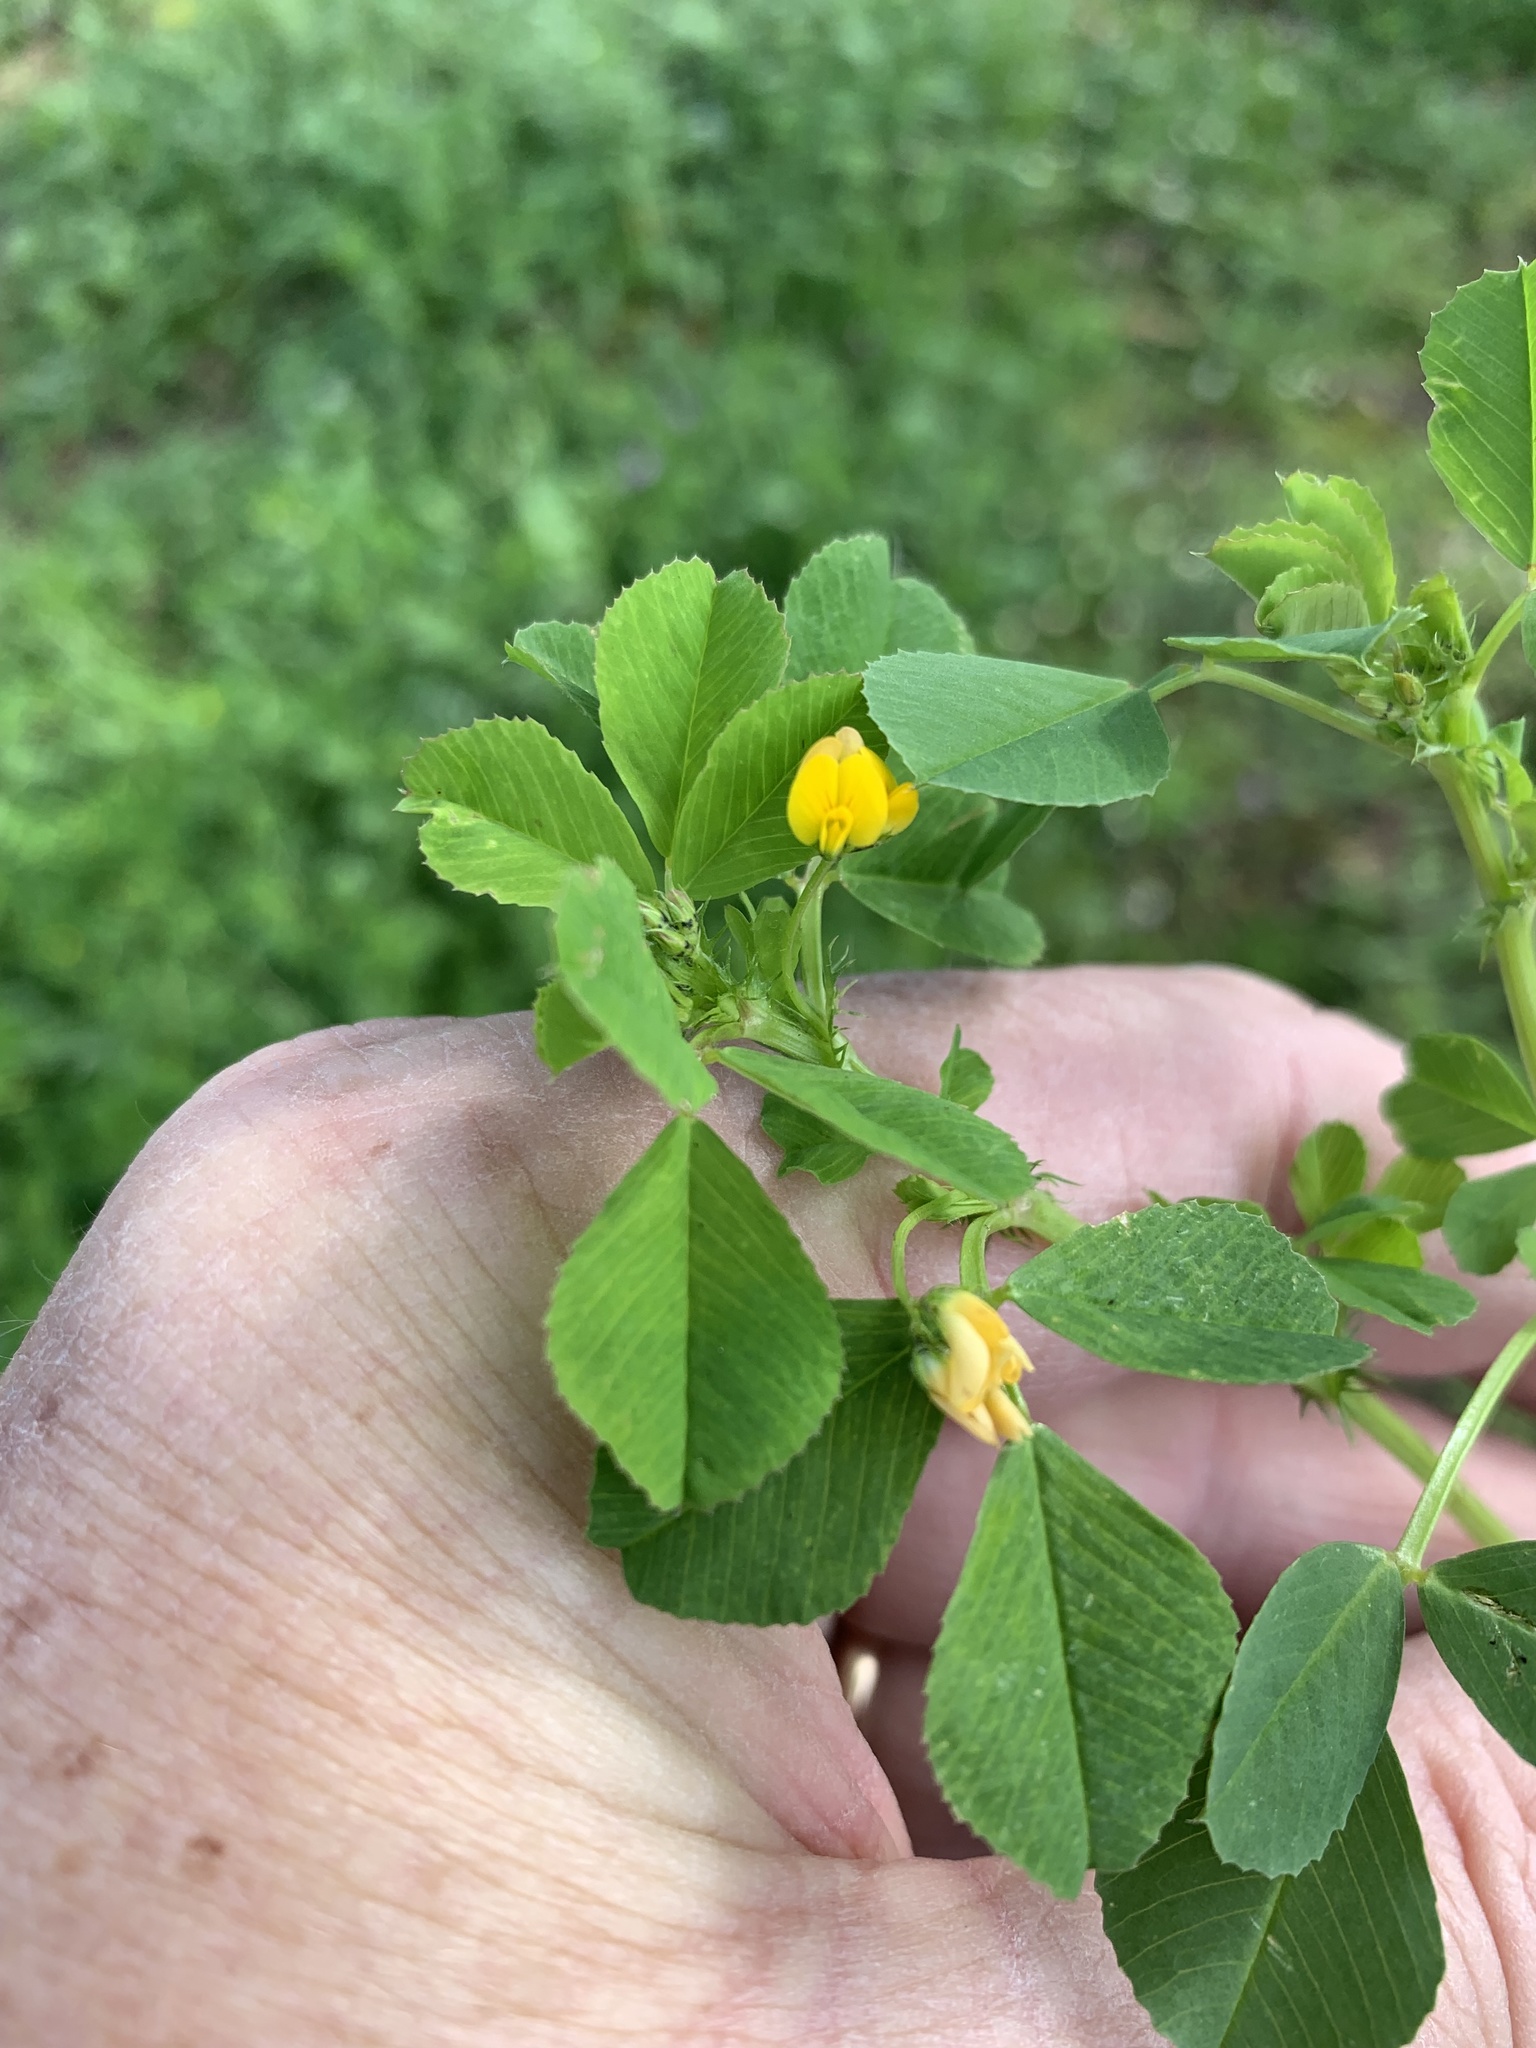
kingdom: Plantae
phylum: Tracheophyta
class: Magnoliopsida
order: Fabales
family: Fabaceae
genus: Medicago
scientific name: Medicago polymorpha
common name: Burclover
